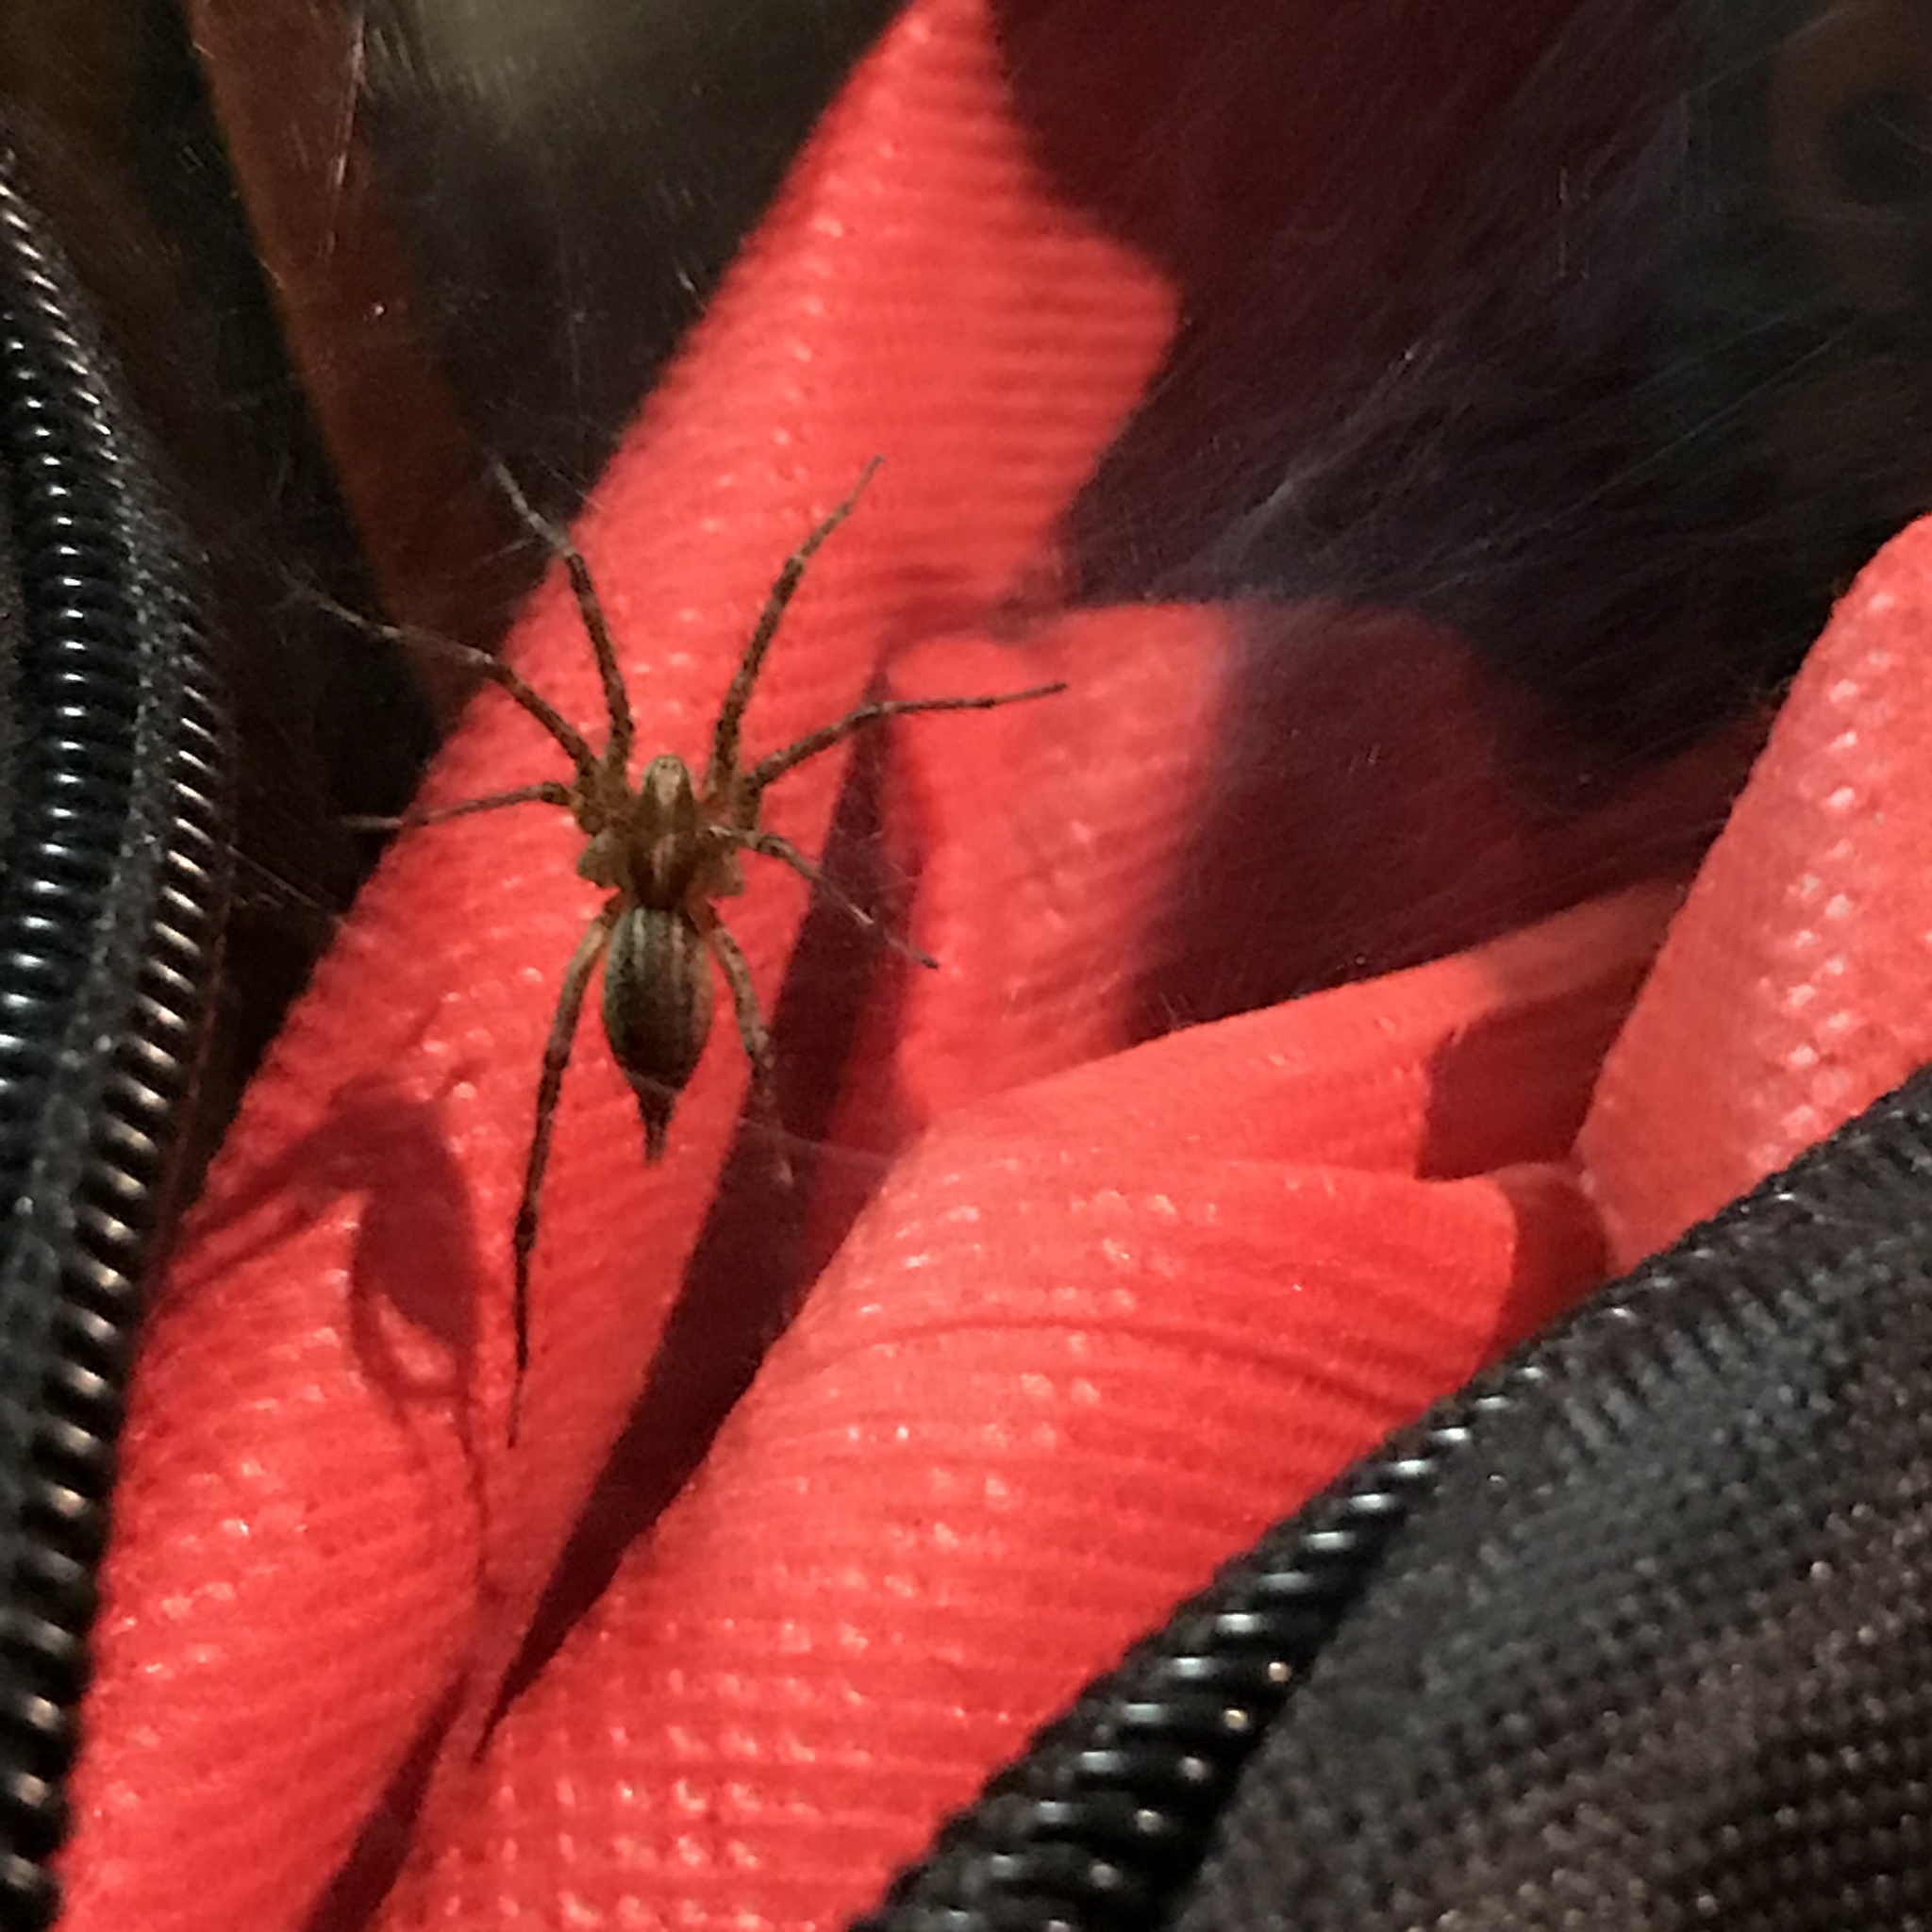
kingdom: Animalia
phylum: Arthropoda
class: Arachnida
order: Araneae
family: Agelenidae
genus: Agelenopsis
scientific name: Agelenopsis
